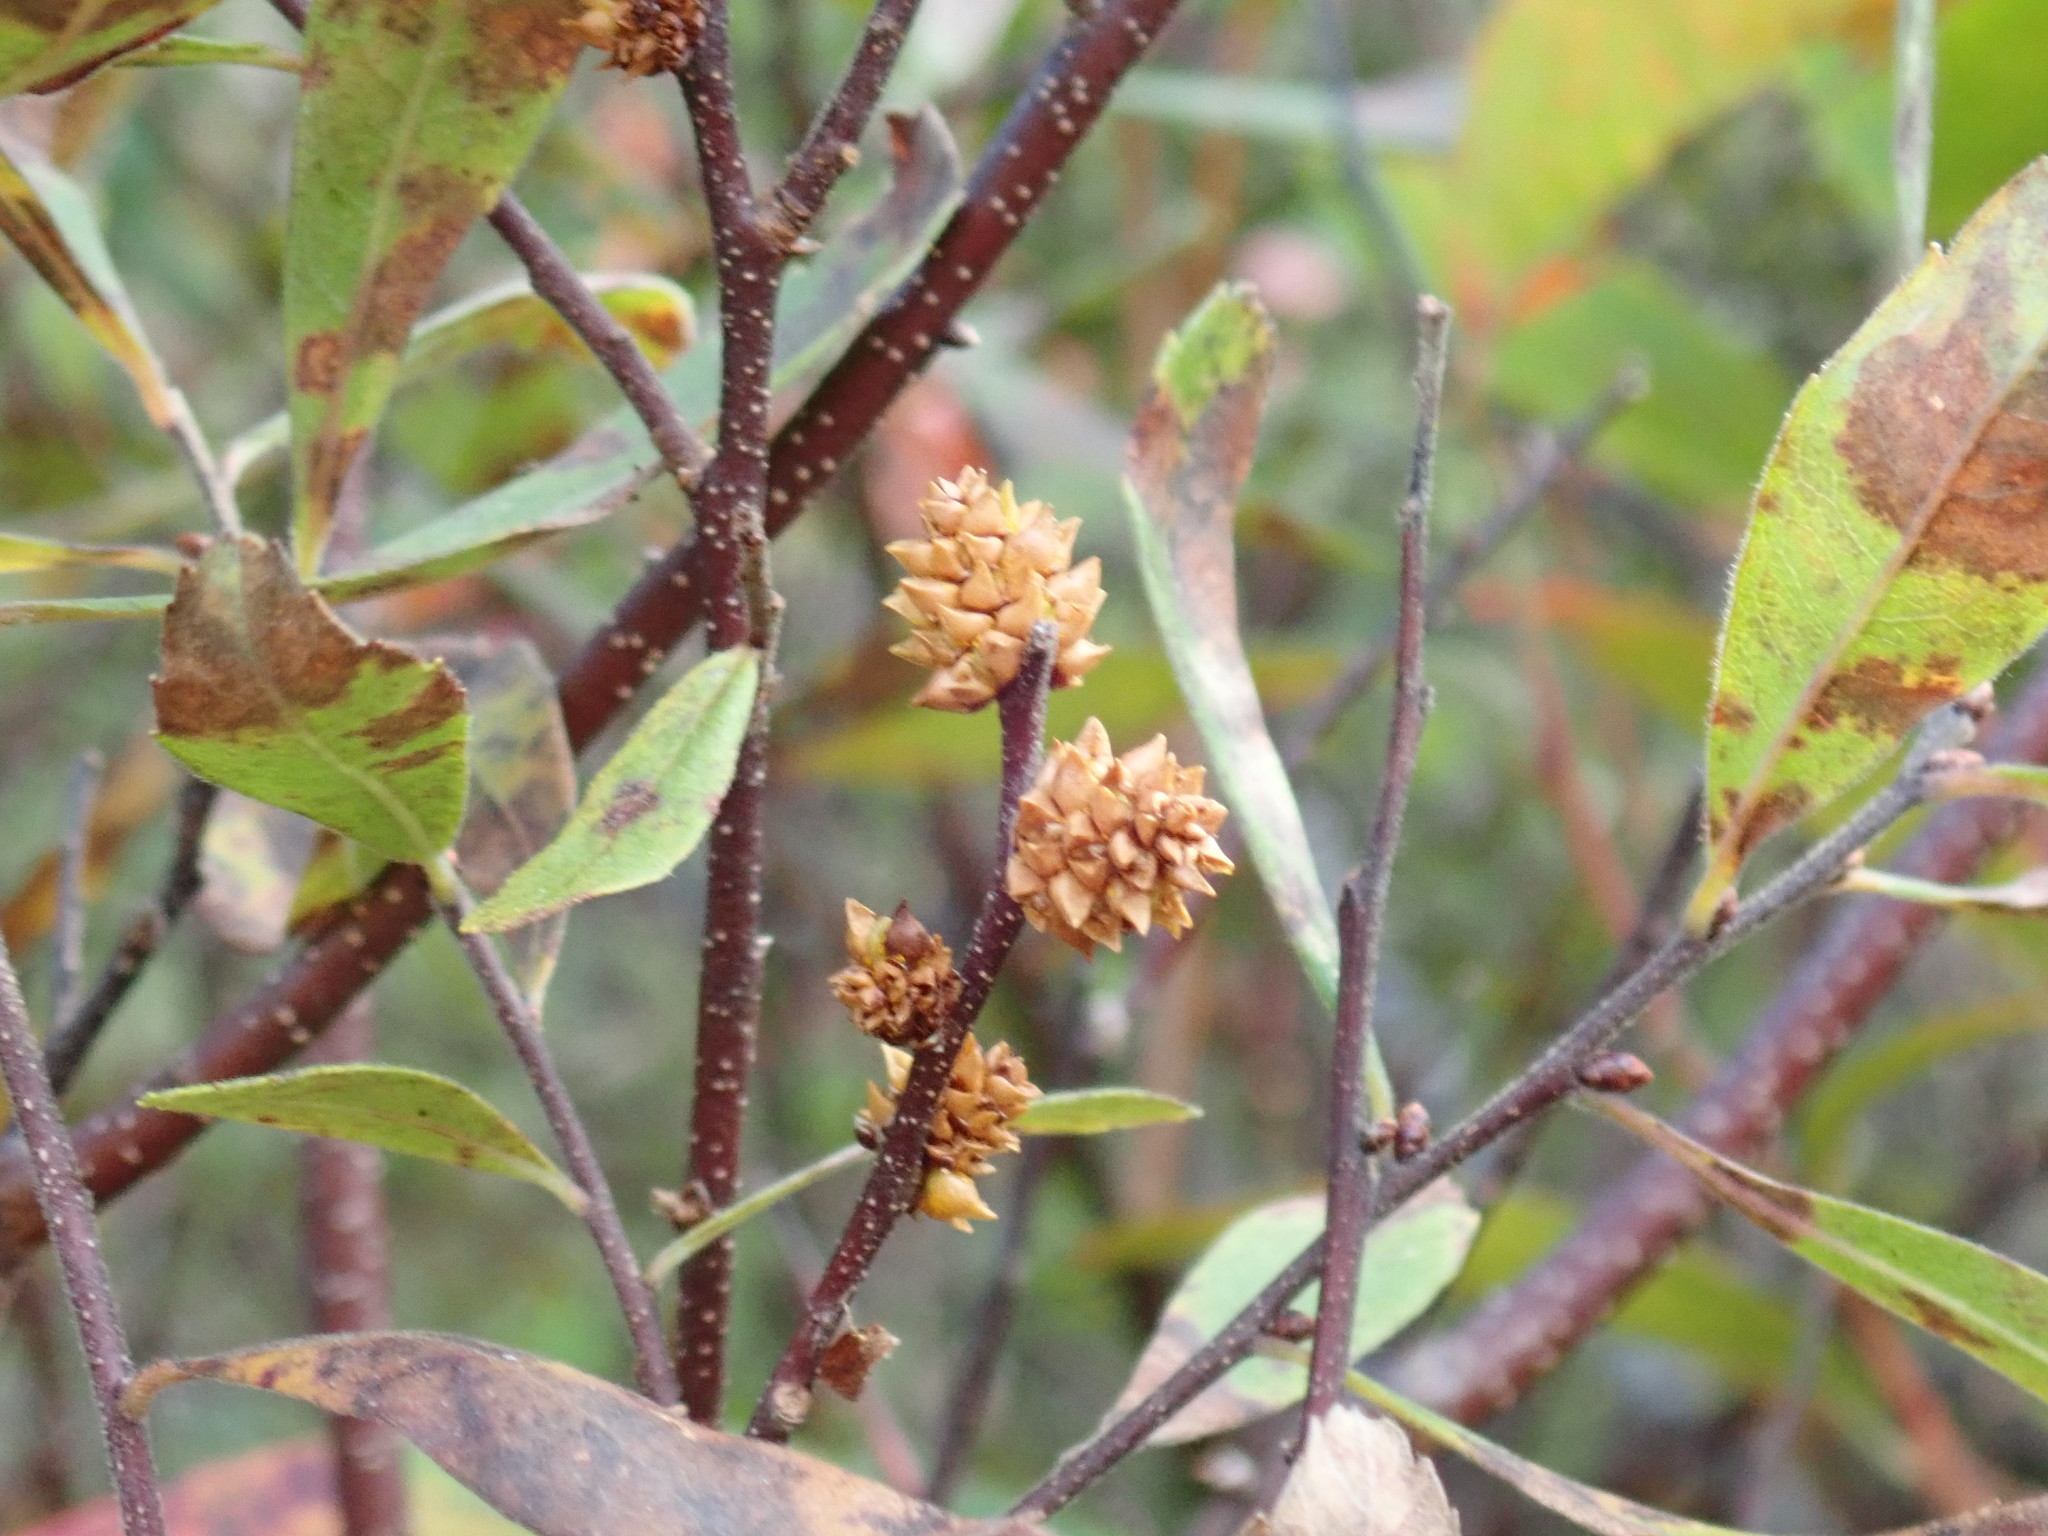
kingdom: Plantae
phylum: Tracheophyta
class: Magnoliopsida
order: Fagales
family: Myricaceae
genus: Myrica
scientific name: Myrica gale
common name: Sweet gale
